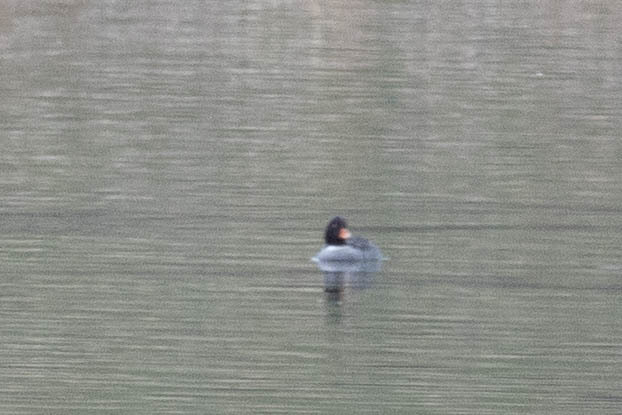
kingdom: Animalia
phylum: Chordata
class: Aves
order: Anseriformes
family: Anatidae
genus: Bucephala
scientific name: Bucephala islandica
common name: Barrow's goldeneye
